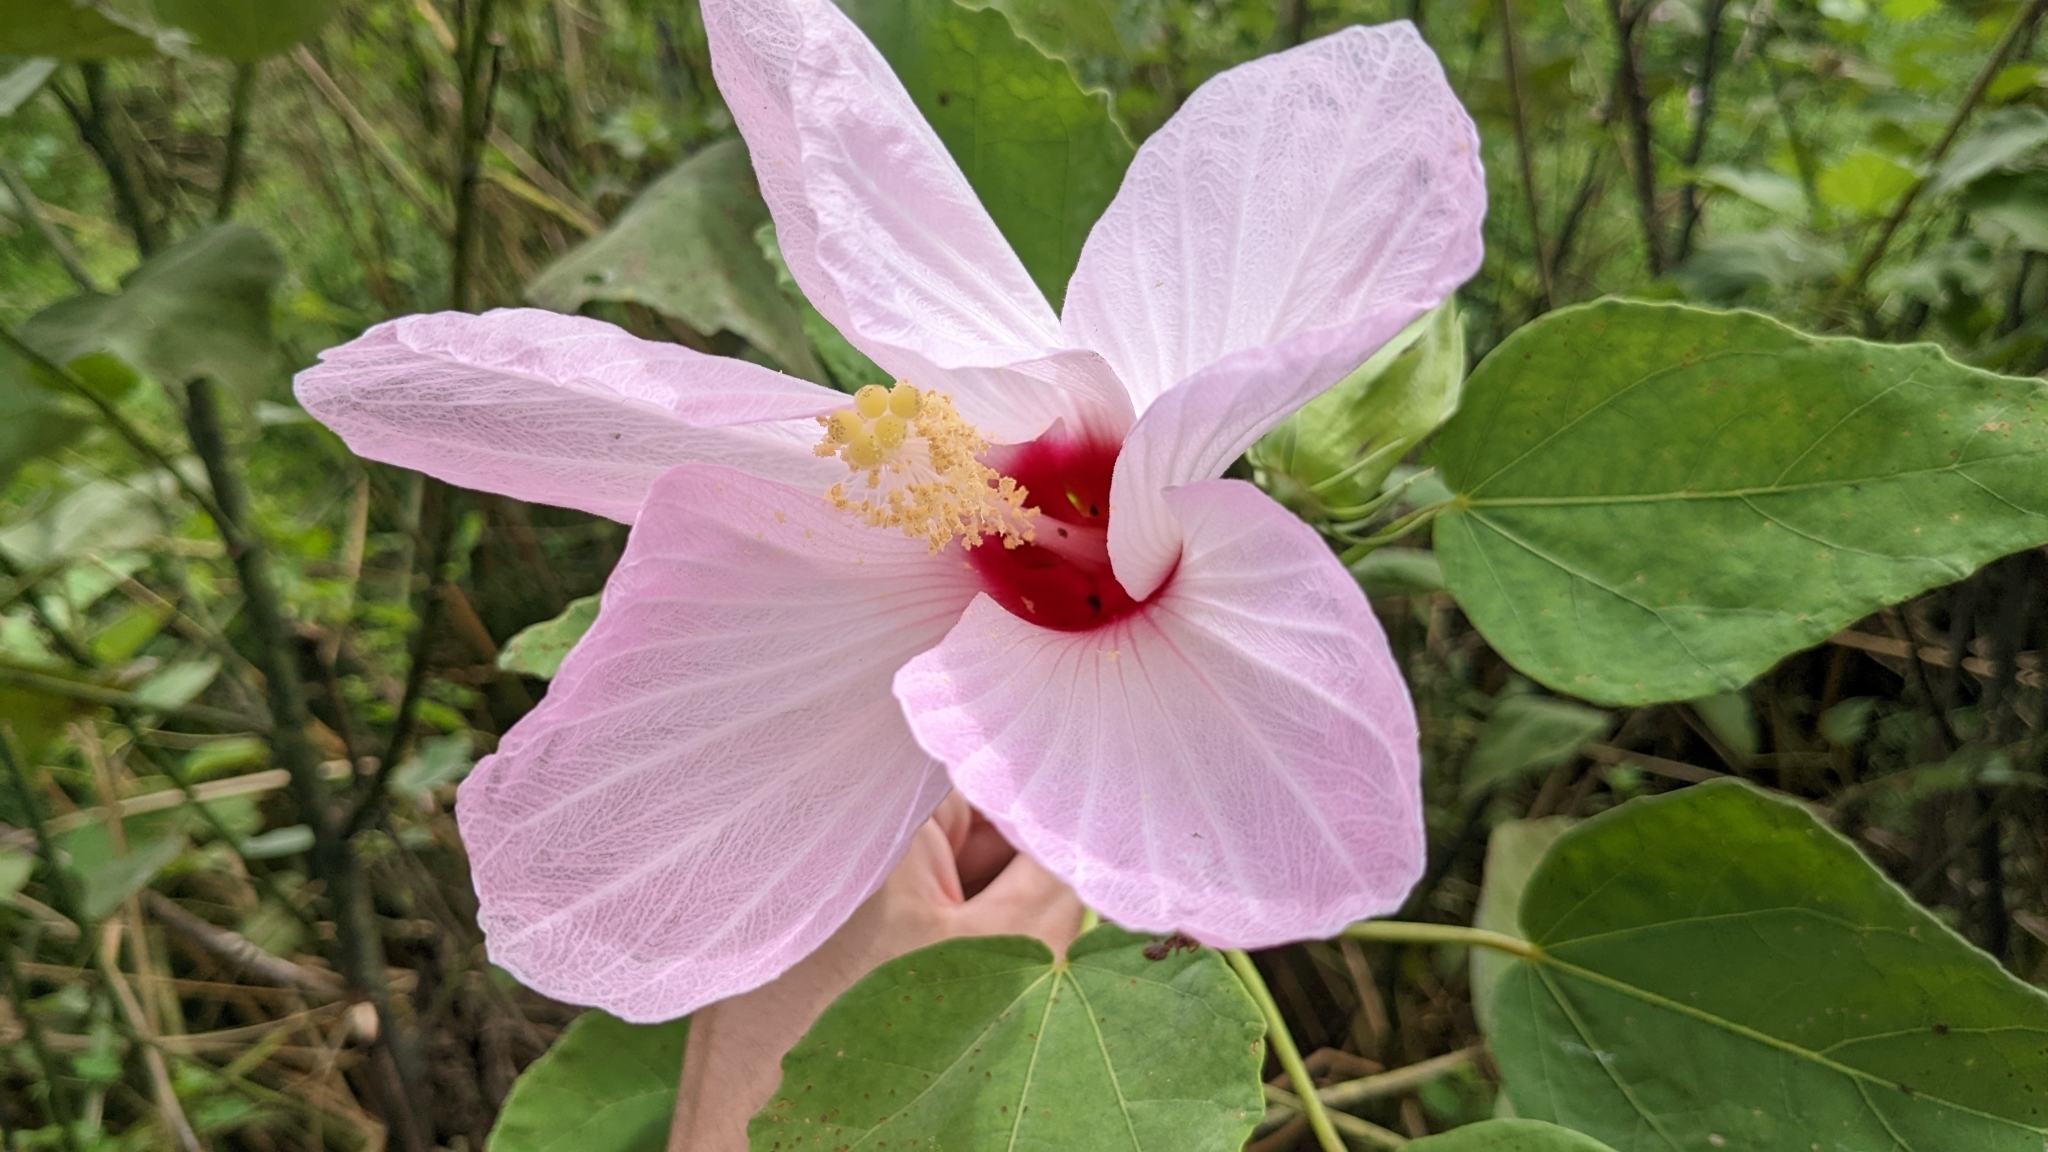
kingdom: Plantae
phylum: Tracheophyta
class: Magnoliopsida
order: Malvales
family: Malvaceae
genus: Hibiscus
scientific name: Hibiscus grandiflorus
